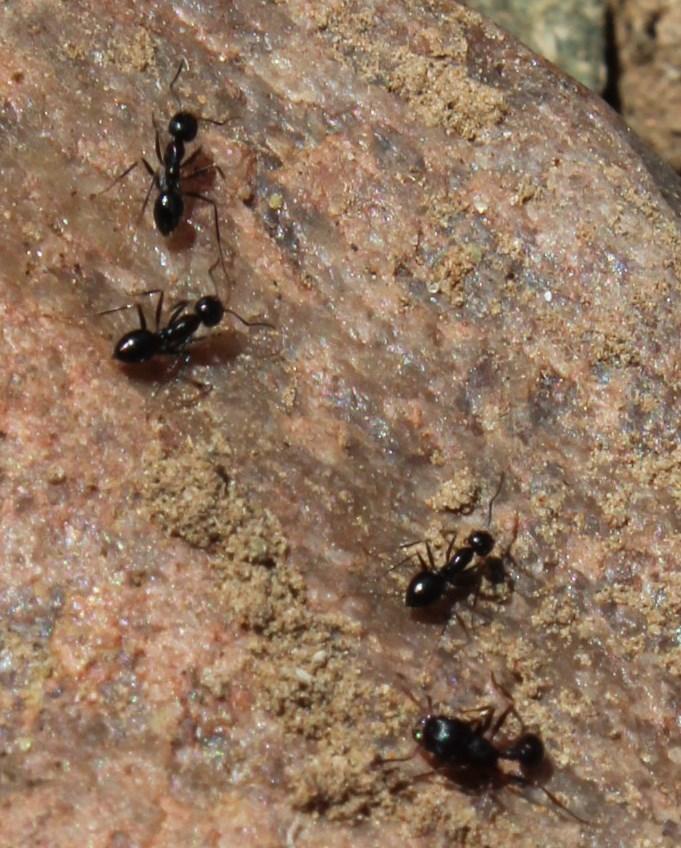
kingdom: Animalia
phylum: Arthropoda
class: Insecta
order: Hymenoptera
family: Formicidae
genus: Lepisiota
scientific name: Lepisiota capensis
